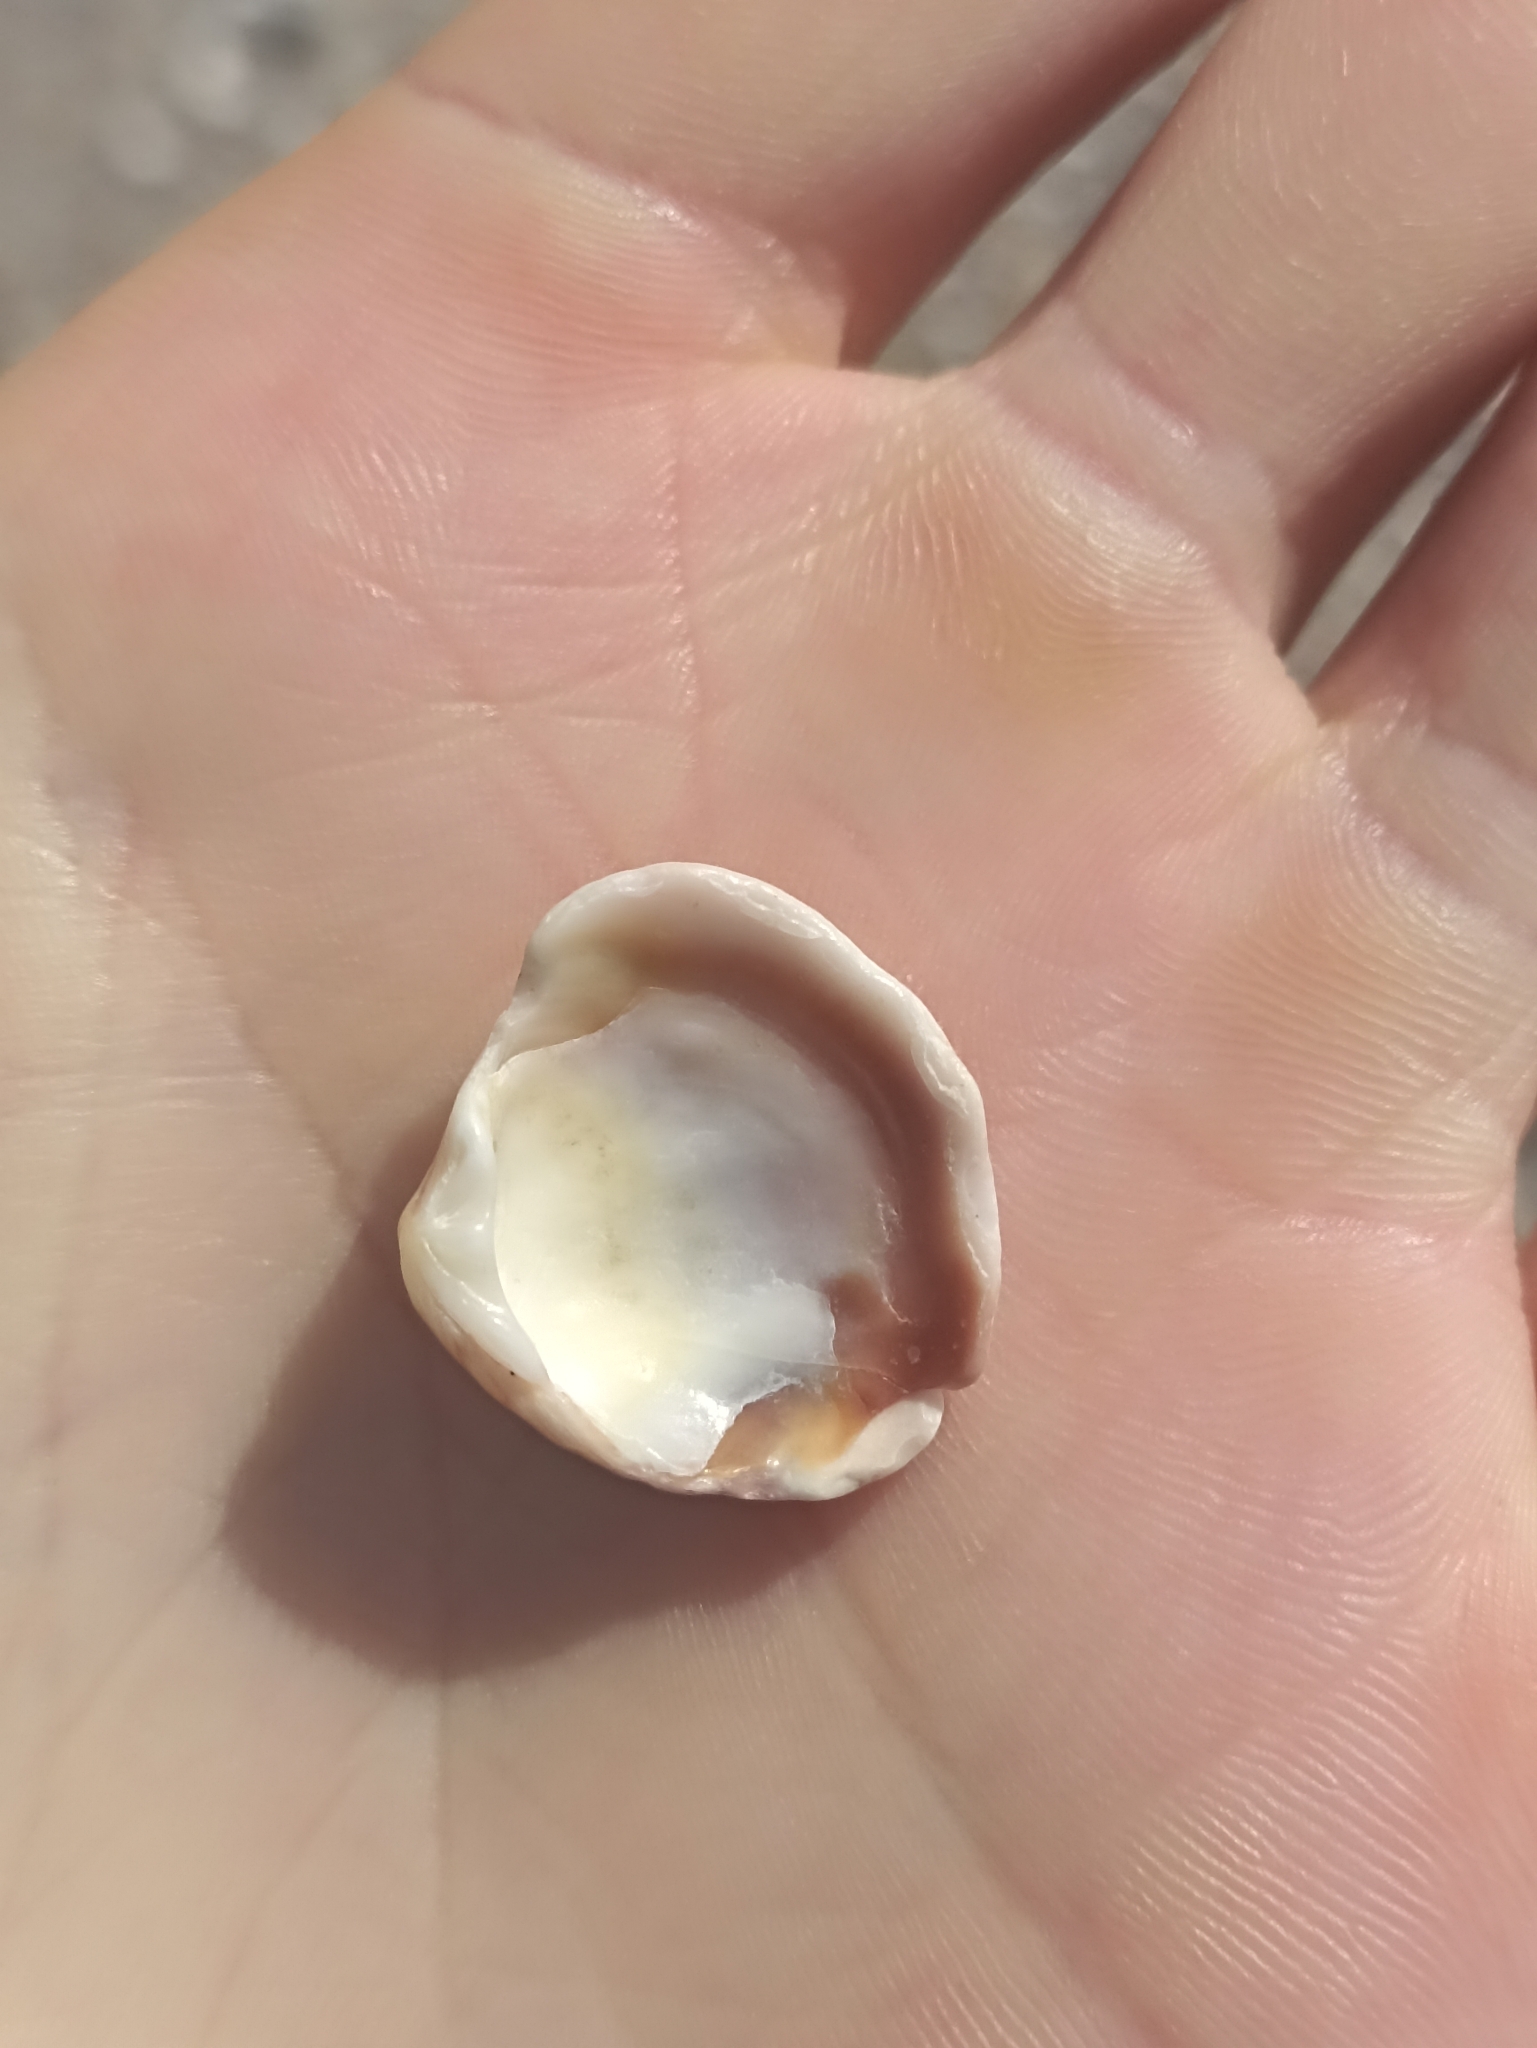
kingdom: Animalia
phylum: Mollusca
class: Bivalvia
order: Venerida
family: Veneridae
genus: Tawera
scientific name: Tawera spissa
